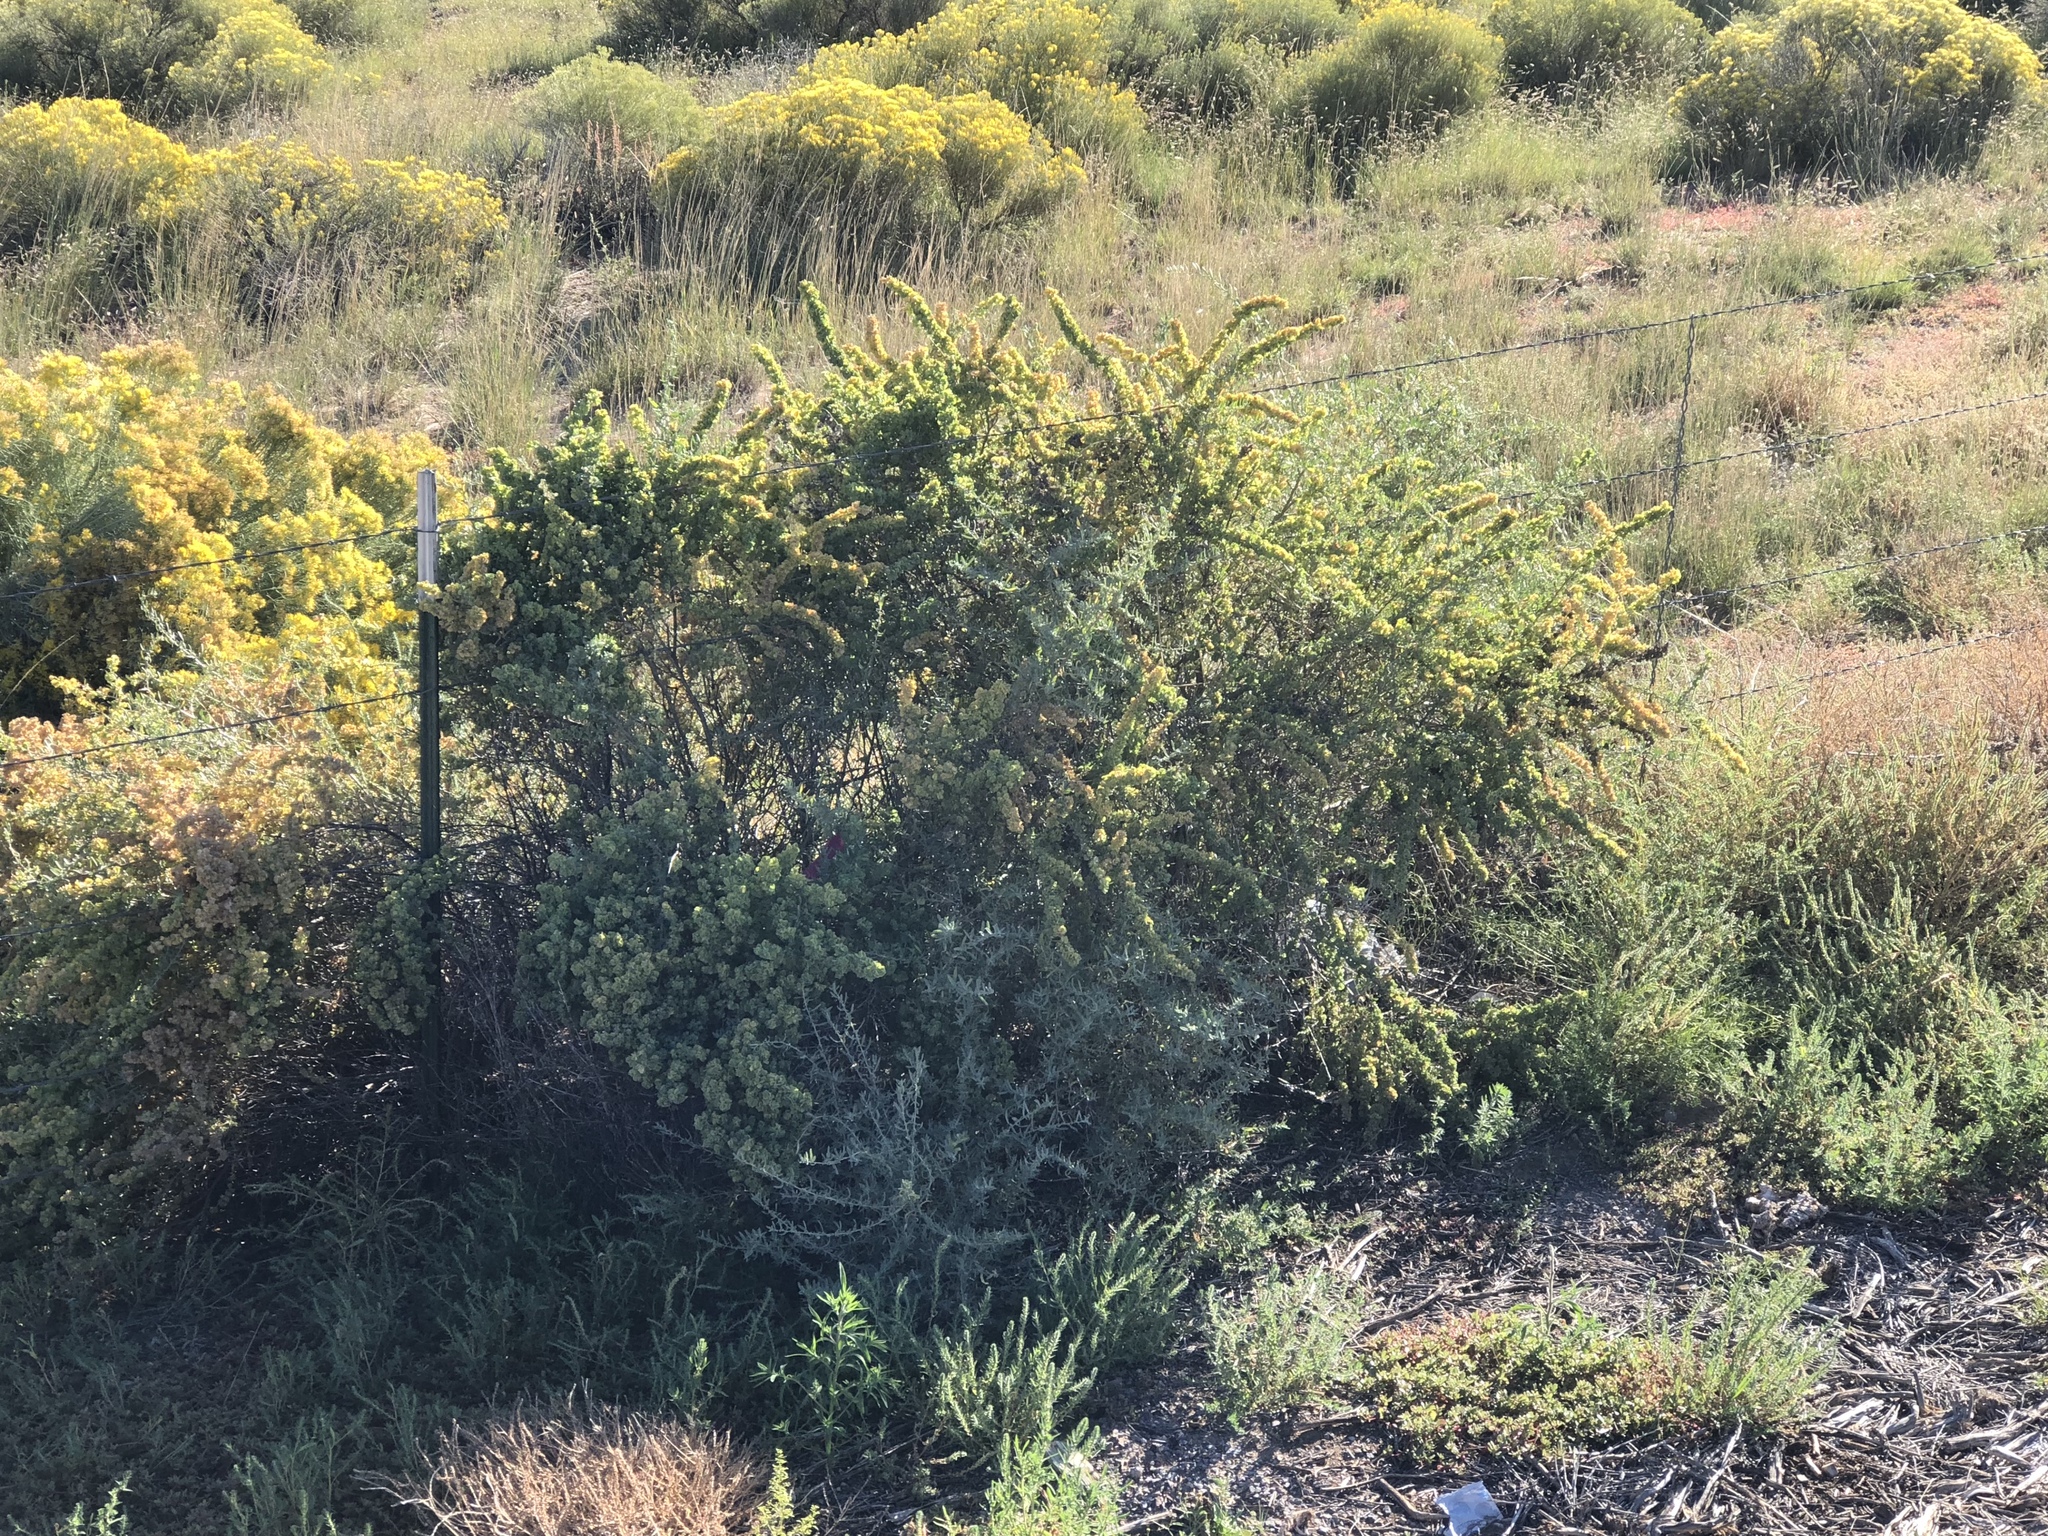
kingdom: Plantae
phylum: Tracheophyta
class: Magnoliopsida
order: Caryophyllales
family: Amaranthaceae
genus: Atriplex
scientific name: Atriplex canescens
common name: Four-wing saltbush
